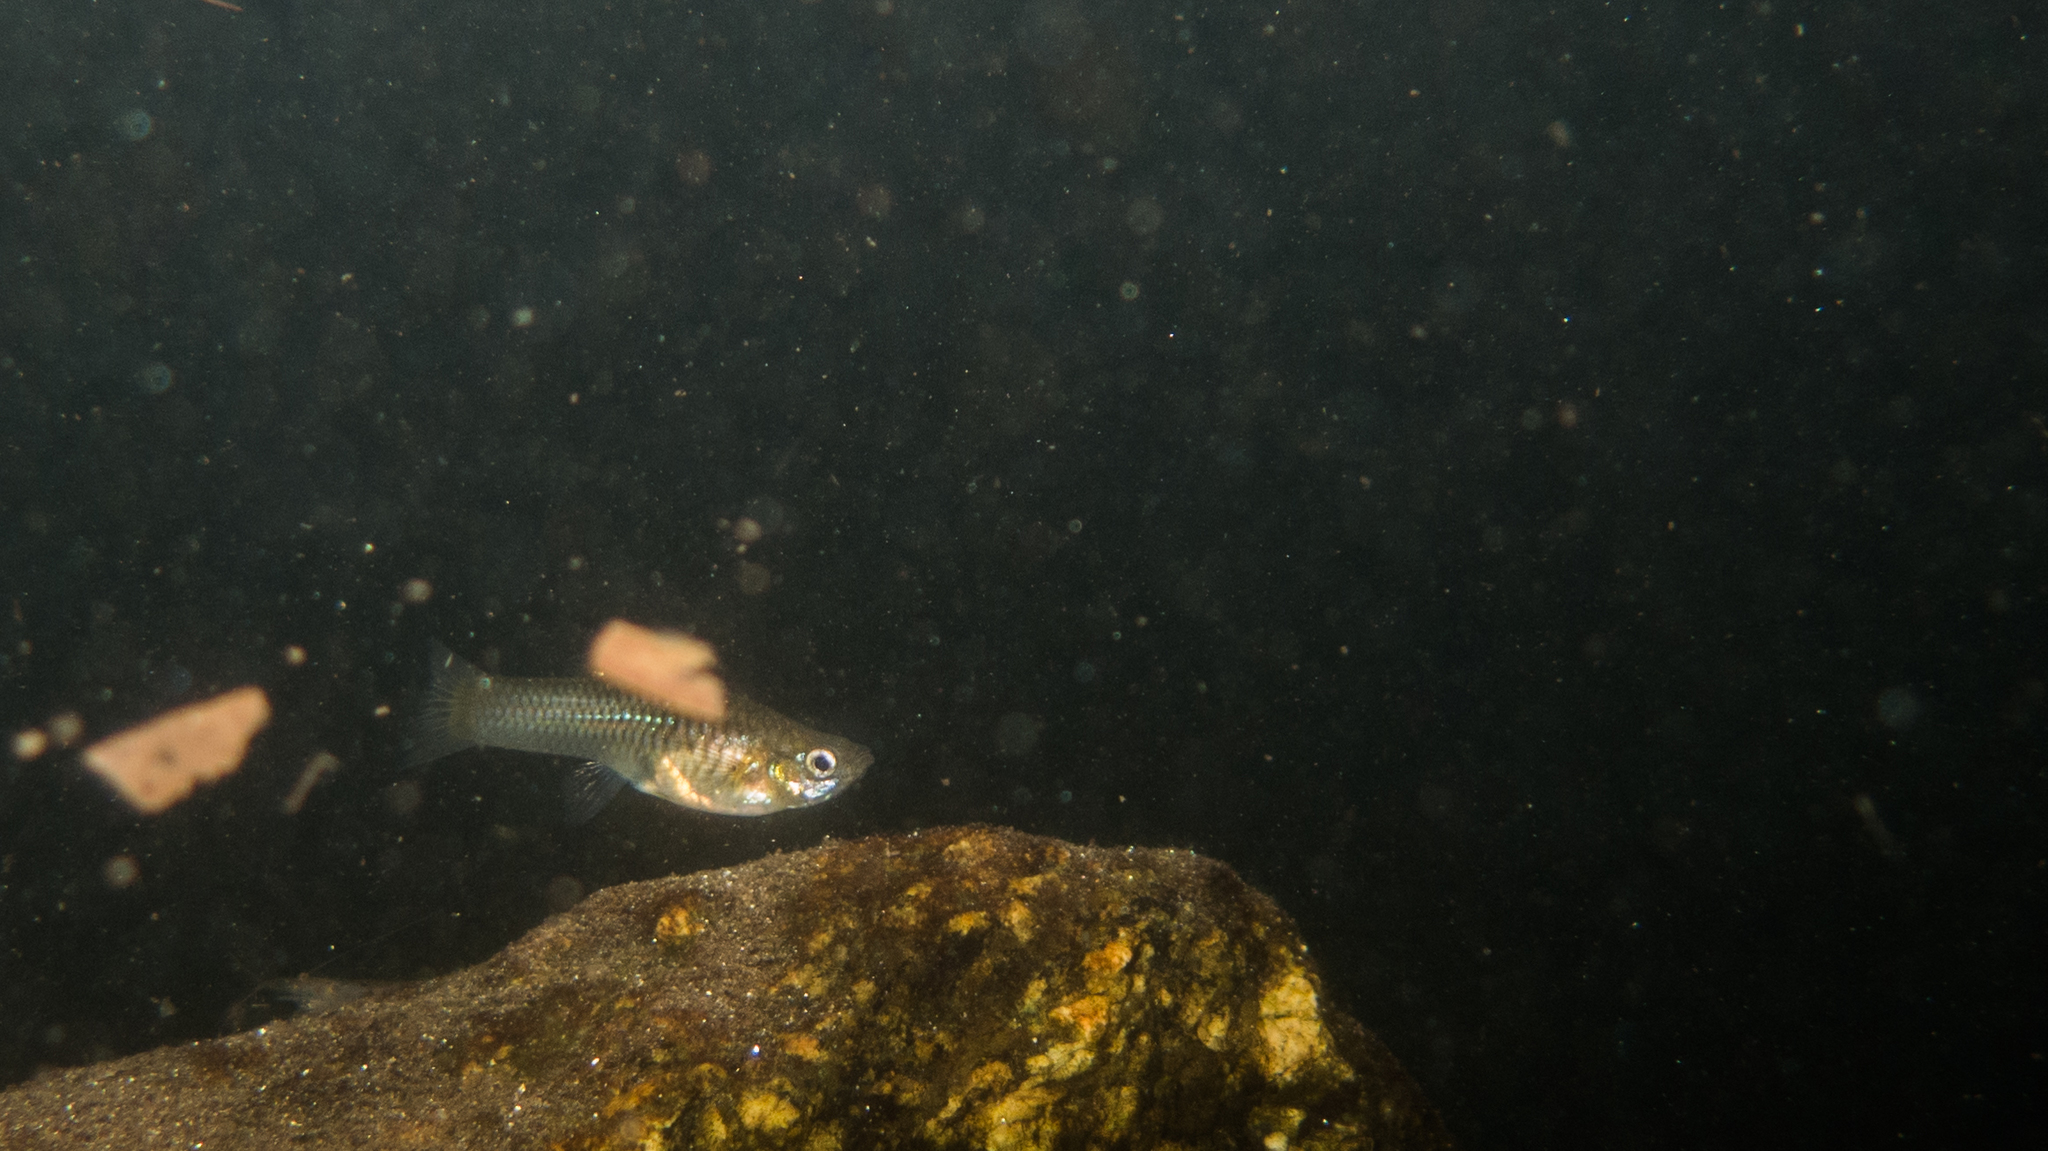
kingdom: Animalia
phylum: Chordata
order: Cyprinodontiformes
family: Poeciliidae
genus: Poecilia
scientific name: Poecilia reticulata
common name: Guppy
